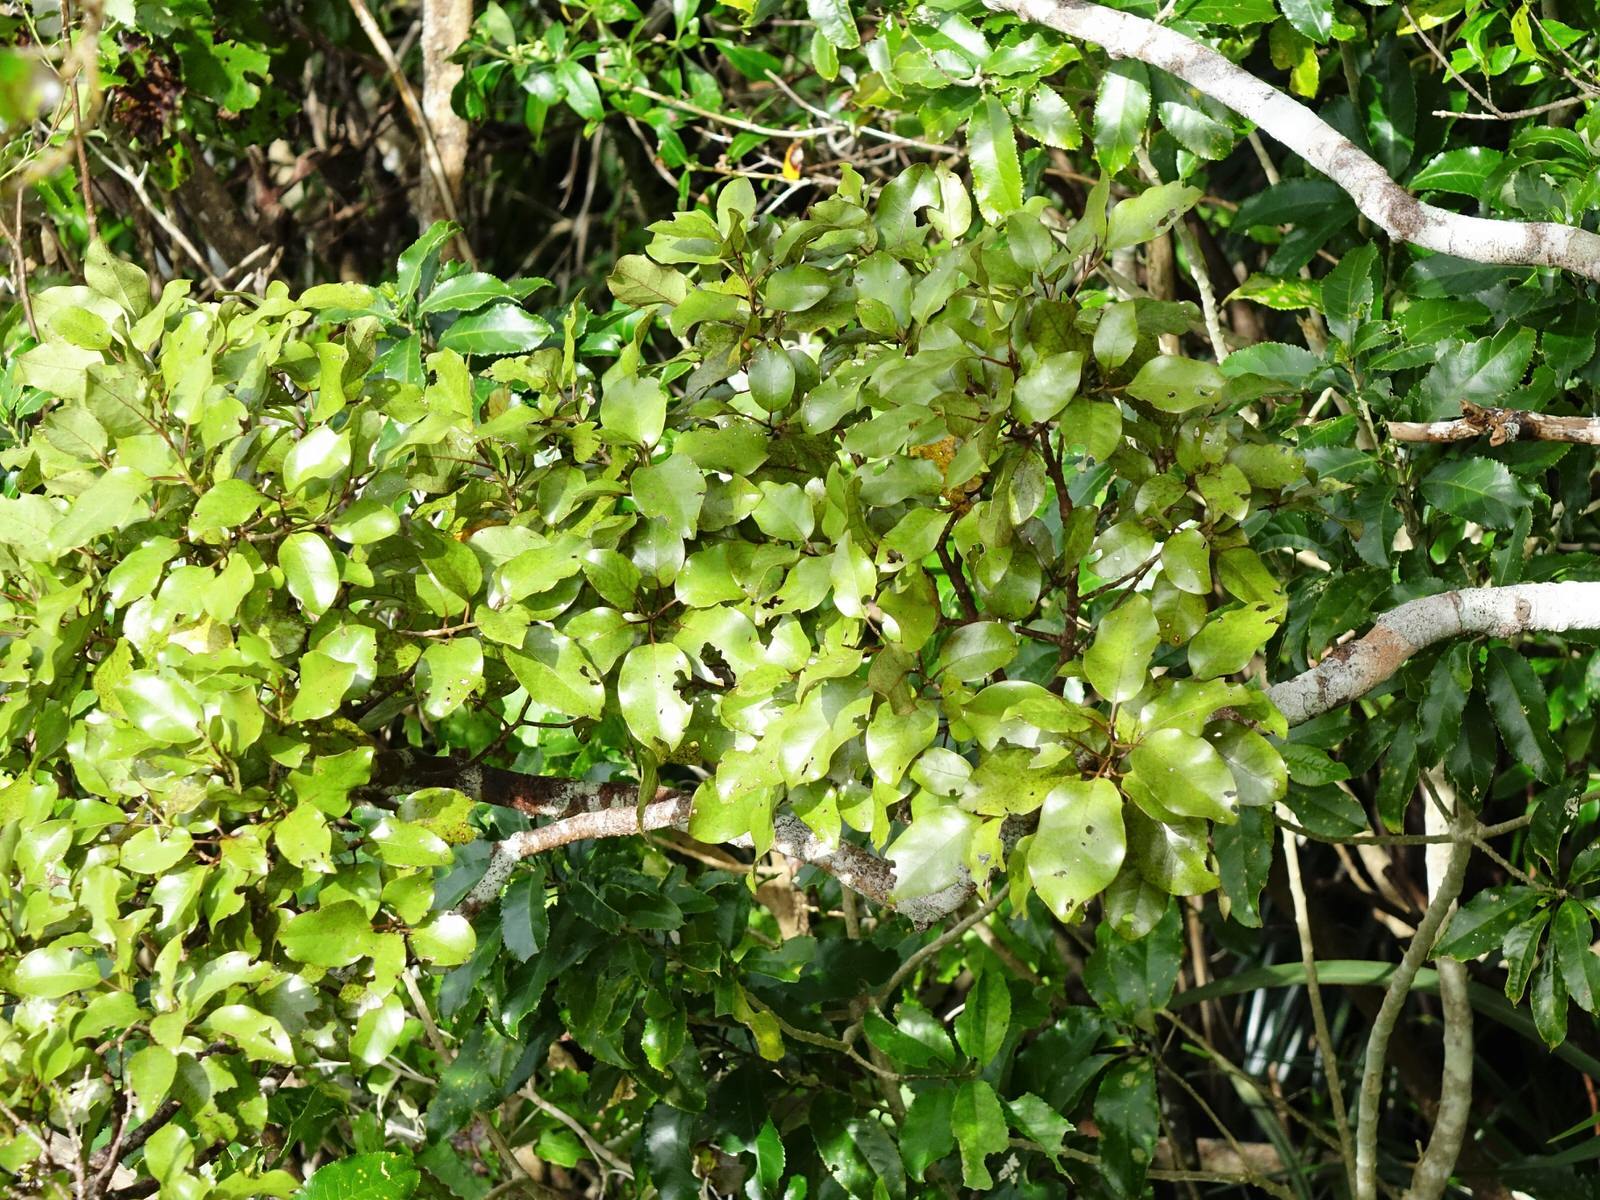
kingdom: Plantae
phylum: Tracheophyta
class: Magnoliopsida
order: Laurales
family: Lauraceae
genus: Litsea
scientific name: Litsea calicaris
